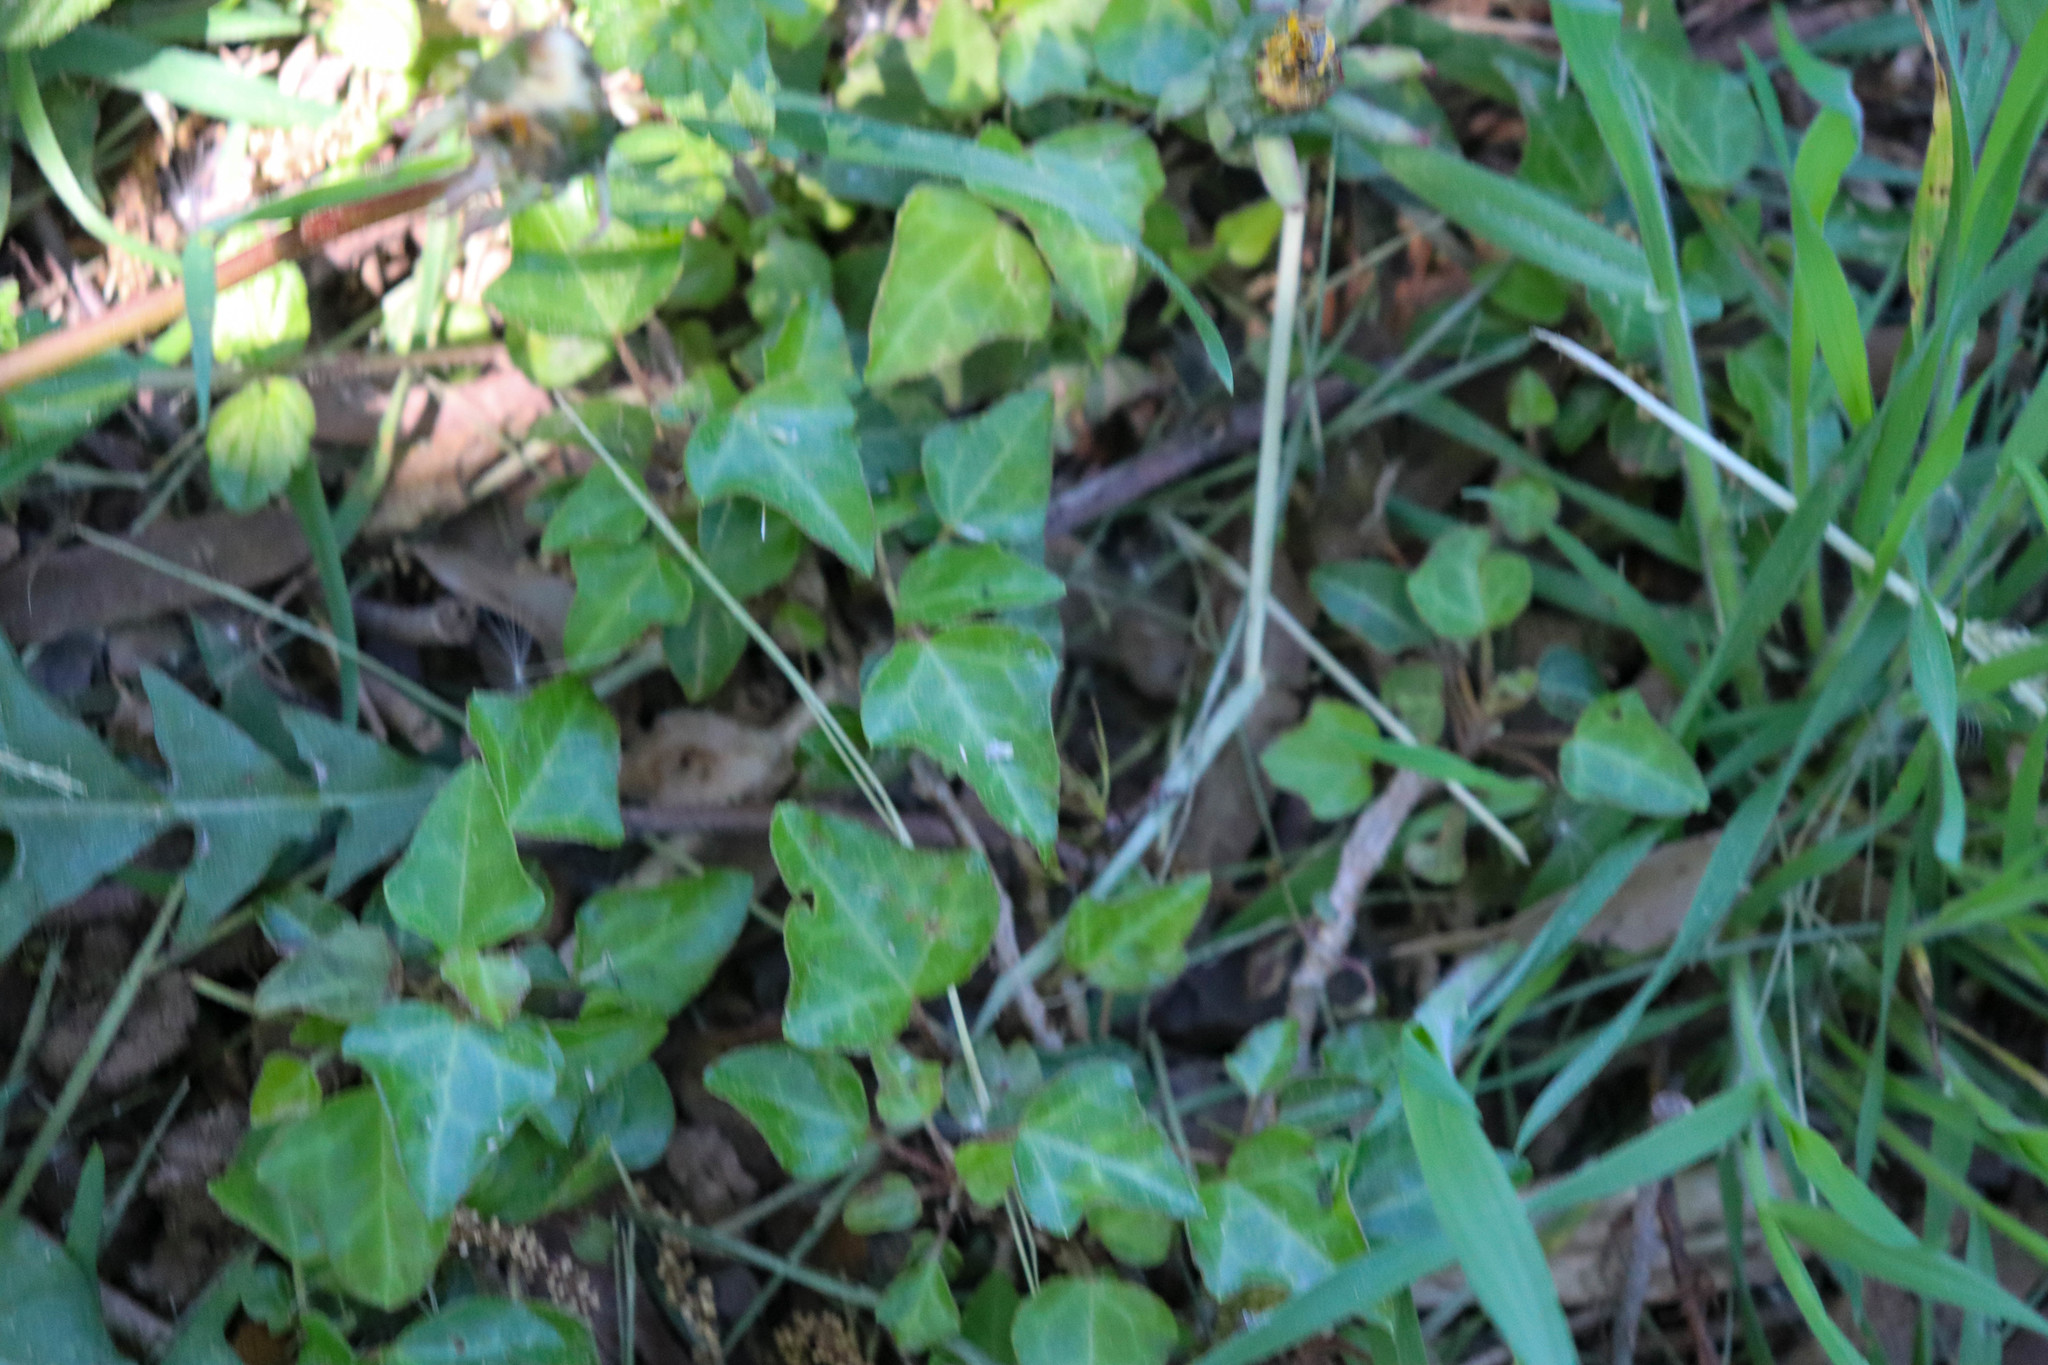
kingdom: Plantae
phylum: Tracheophyta
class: Magnoliopsida
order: Apiales
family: Araliaceae
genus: Hedera
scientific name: Hedera helix
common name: Ivy
